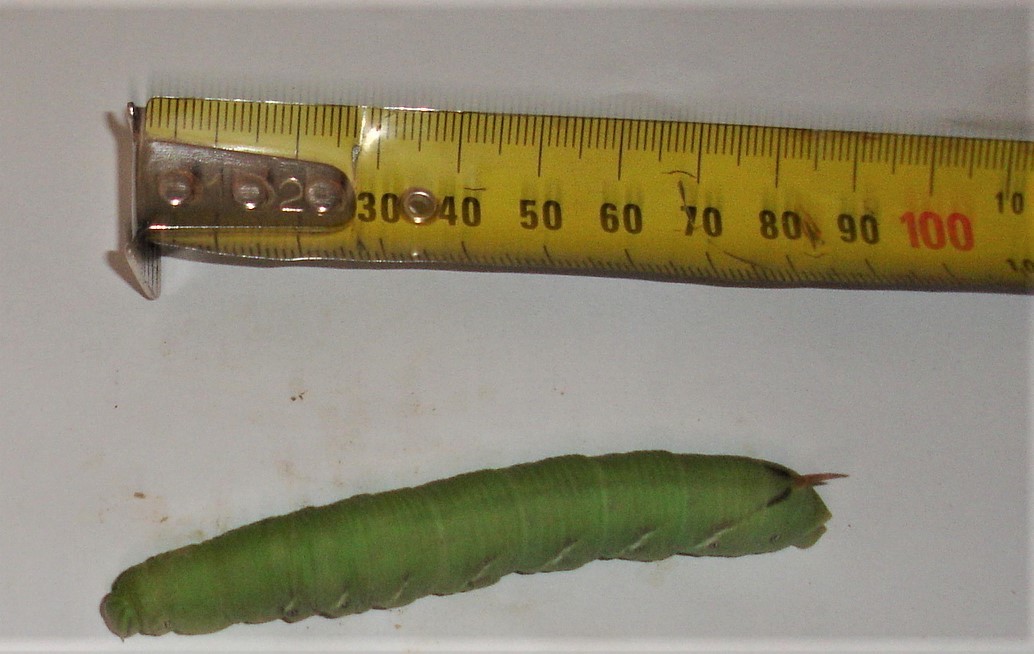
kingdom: Animalia
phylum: Arthropoda
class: Insecta
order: Lepidoptera
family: Sphingidae
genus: Agrius
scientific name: Agrius convolvuli
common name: Convolvulus hawkmoth
